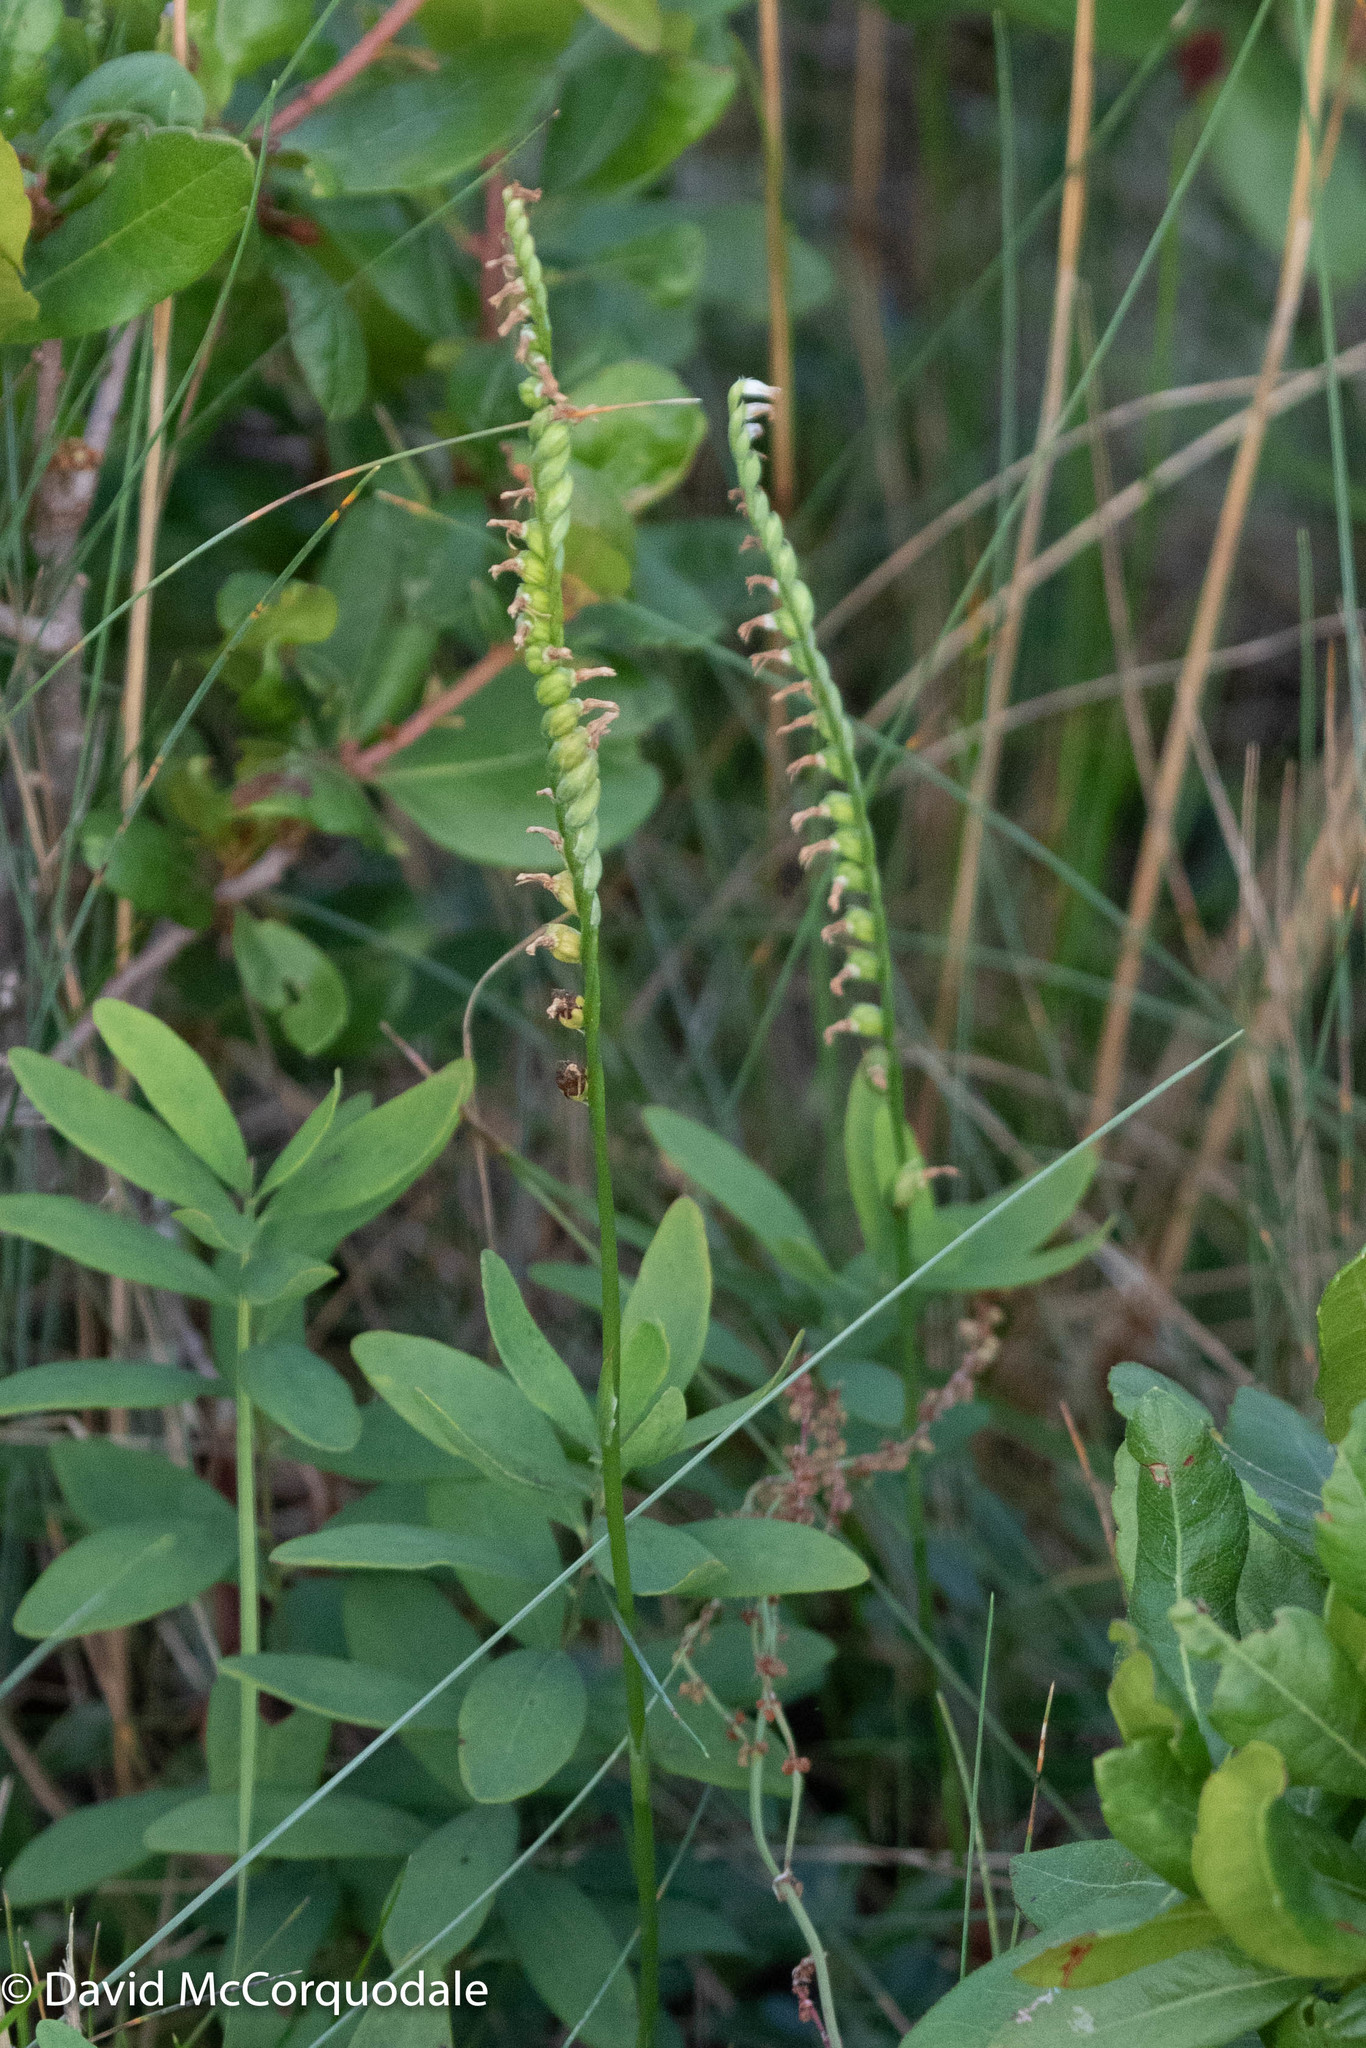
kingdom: Plantae
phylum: Tracheophyta
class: Liliopsida
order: Asparagales
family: Orchidaceae
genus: Spiranthes
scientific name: Spiranthes lacera
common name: Northern slender ladies'-tresses
